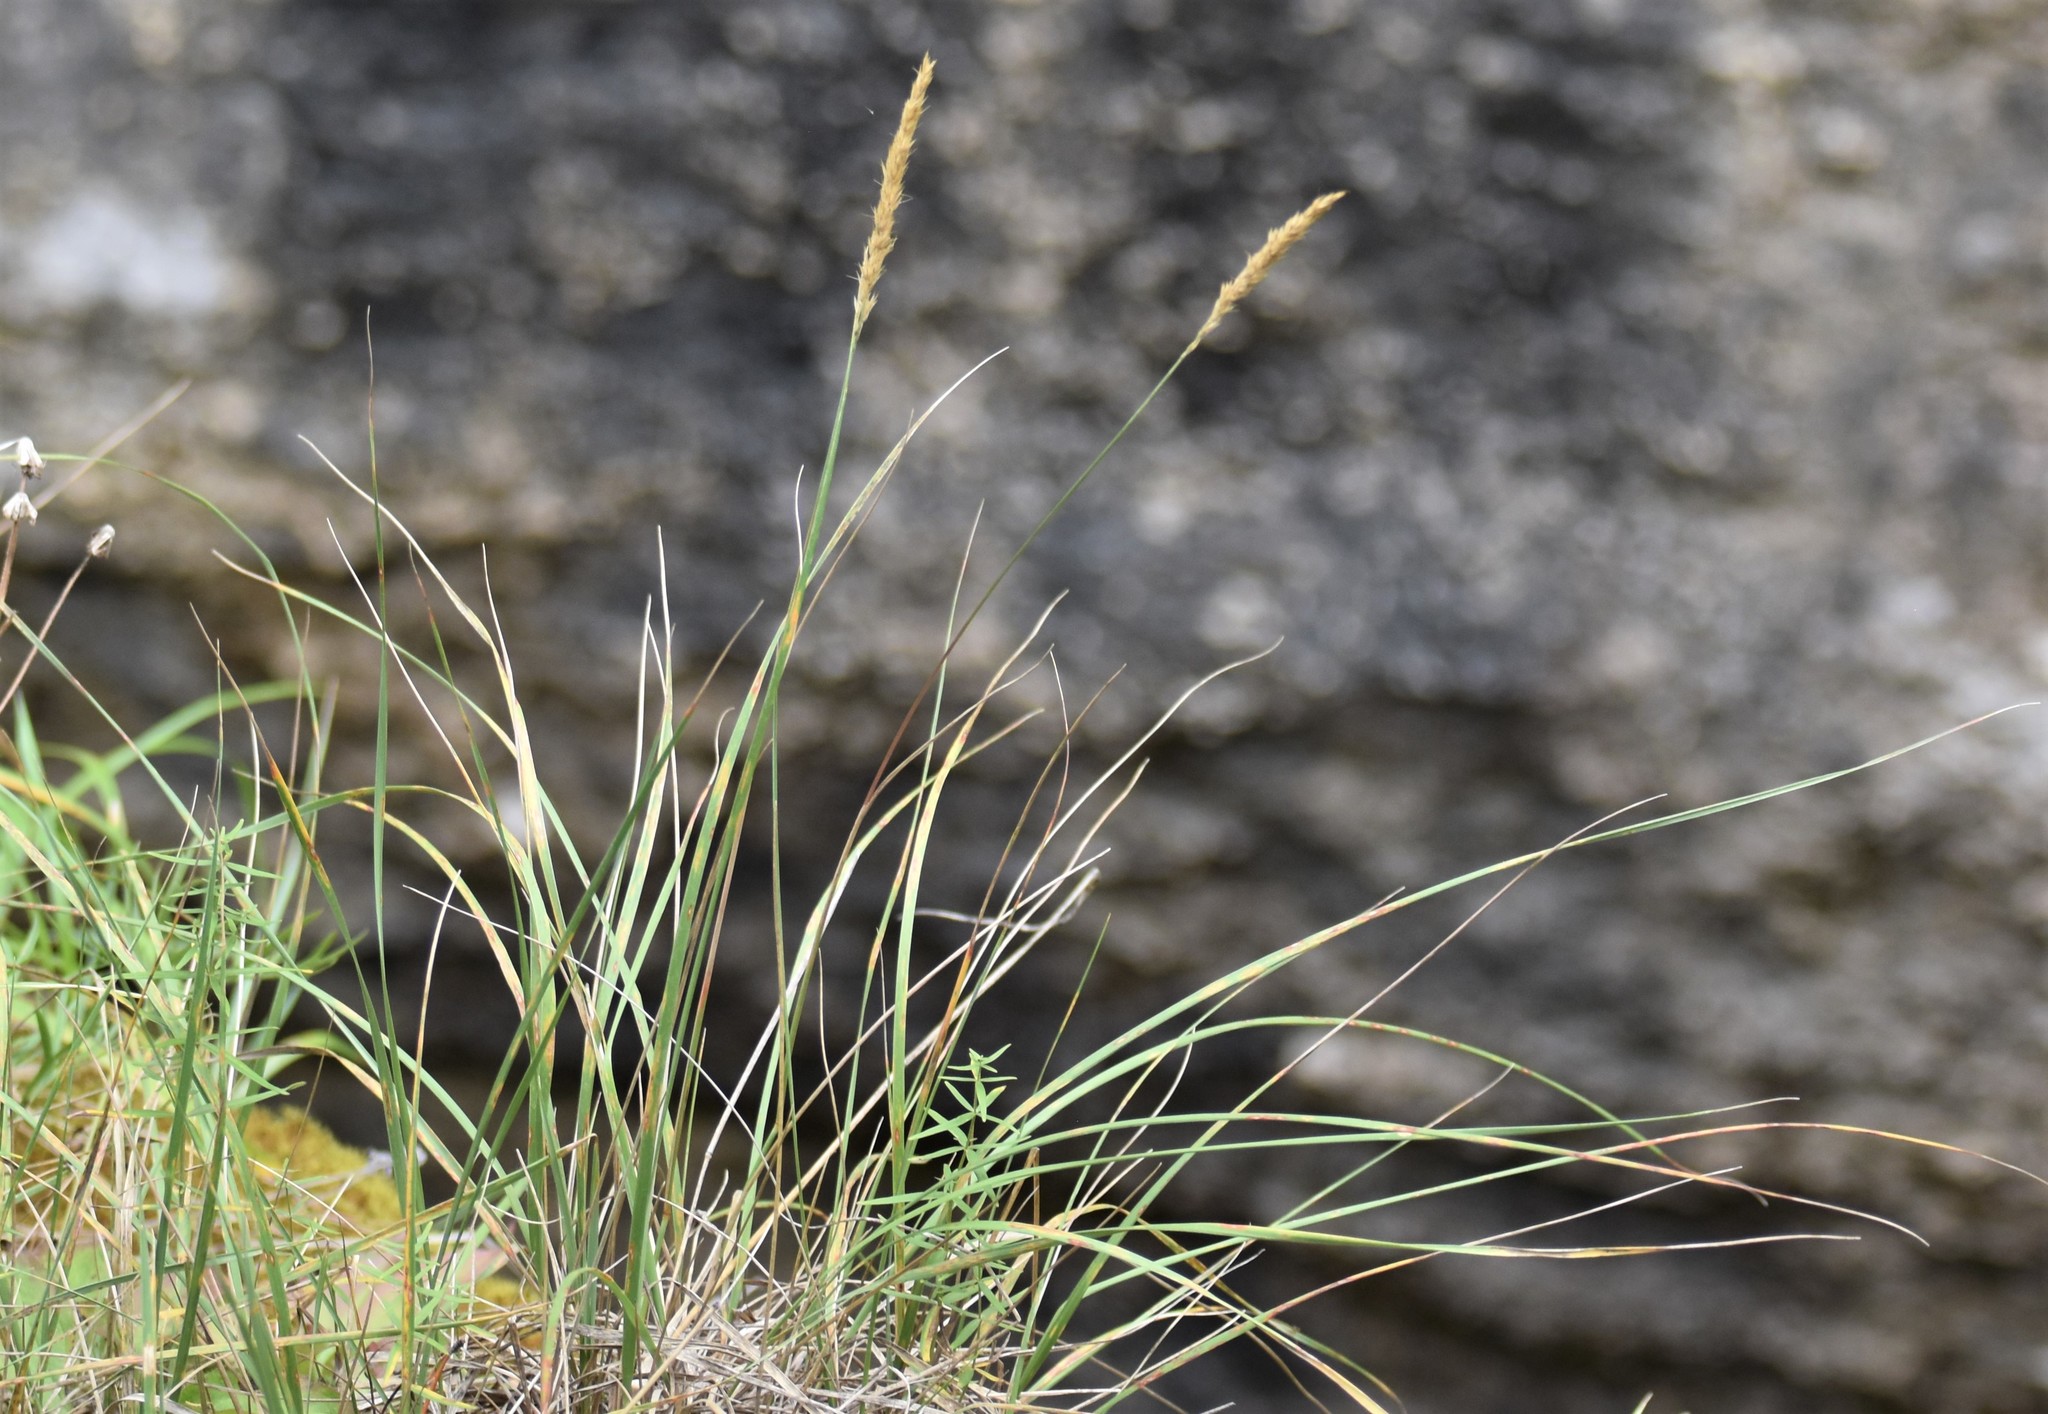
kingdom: Plantae
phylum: Tracheophyta
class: Liliopsida
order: Poales
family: Poaceae
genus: Koeleria
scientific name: Koeleria spicata
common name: Mountain trisetum
